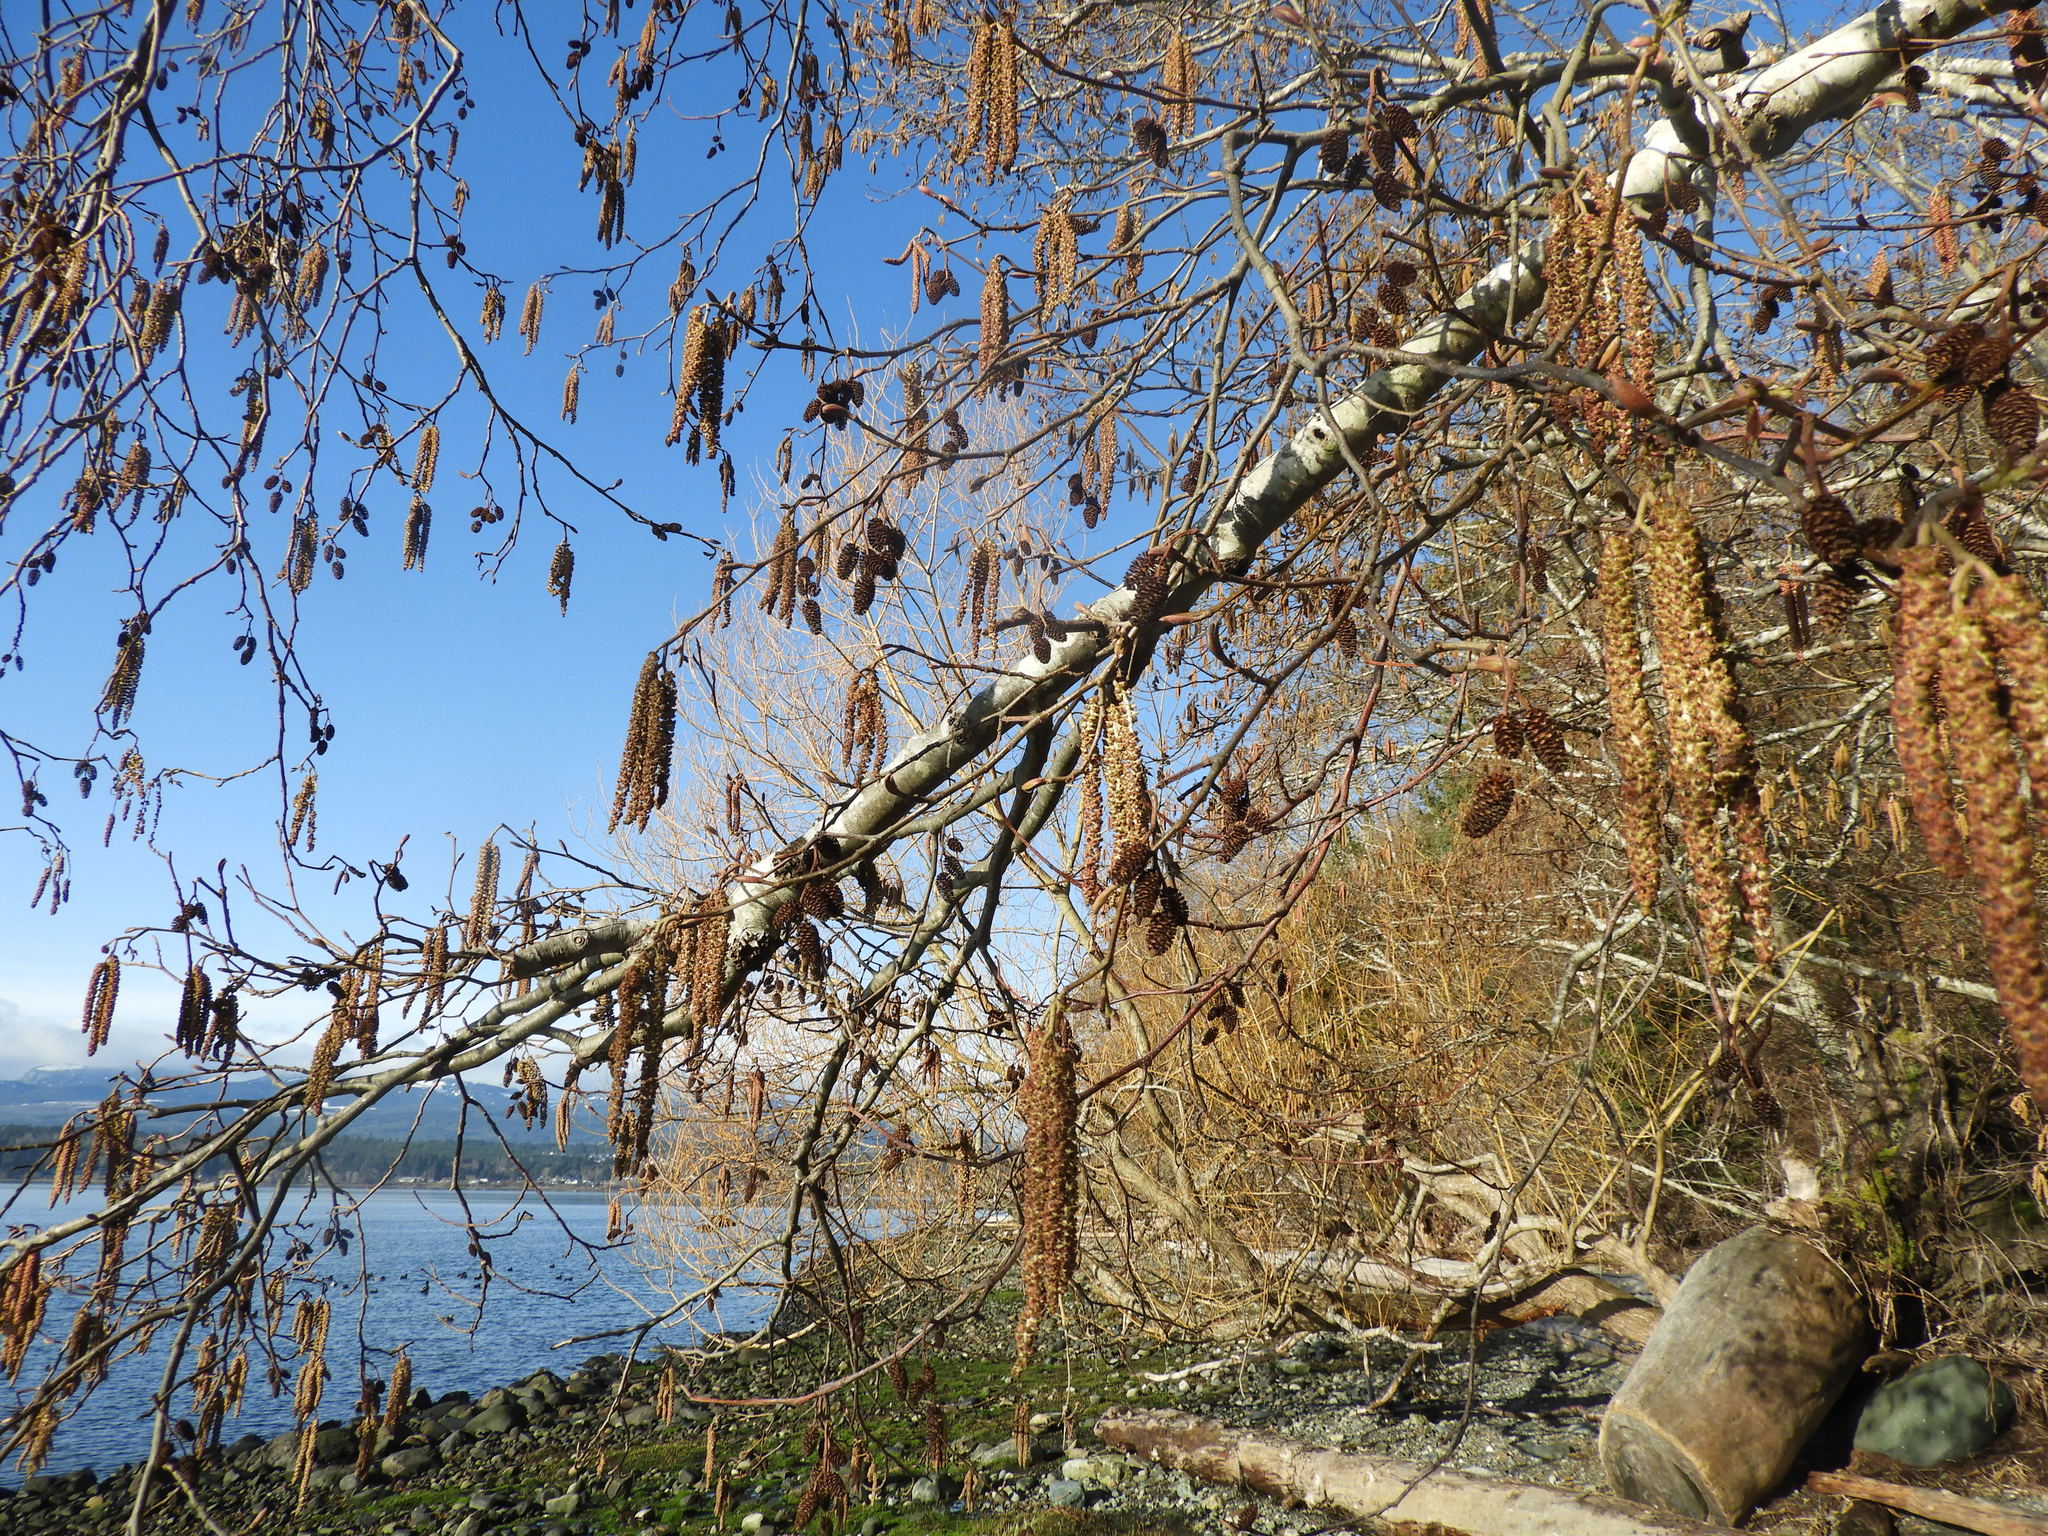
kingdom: Plantae
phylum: Tracheophyta
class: Magnoliopsida
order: Fagales
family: Betulaceae
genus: Alnus
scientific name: Alnus rubra
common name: Red alder
